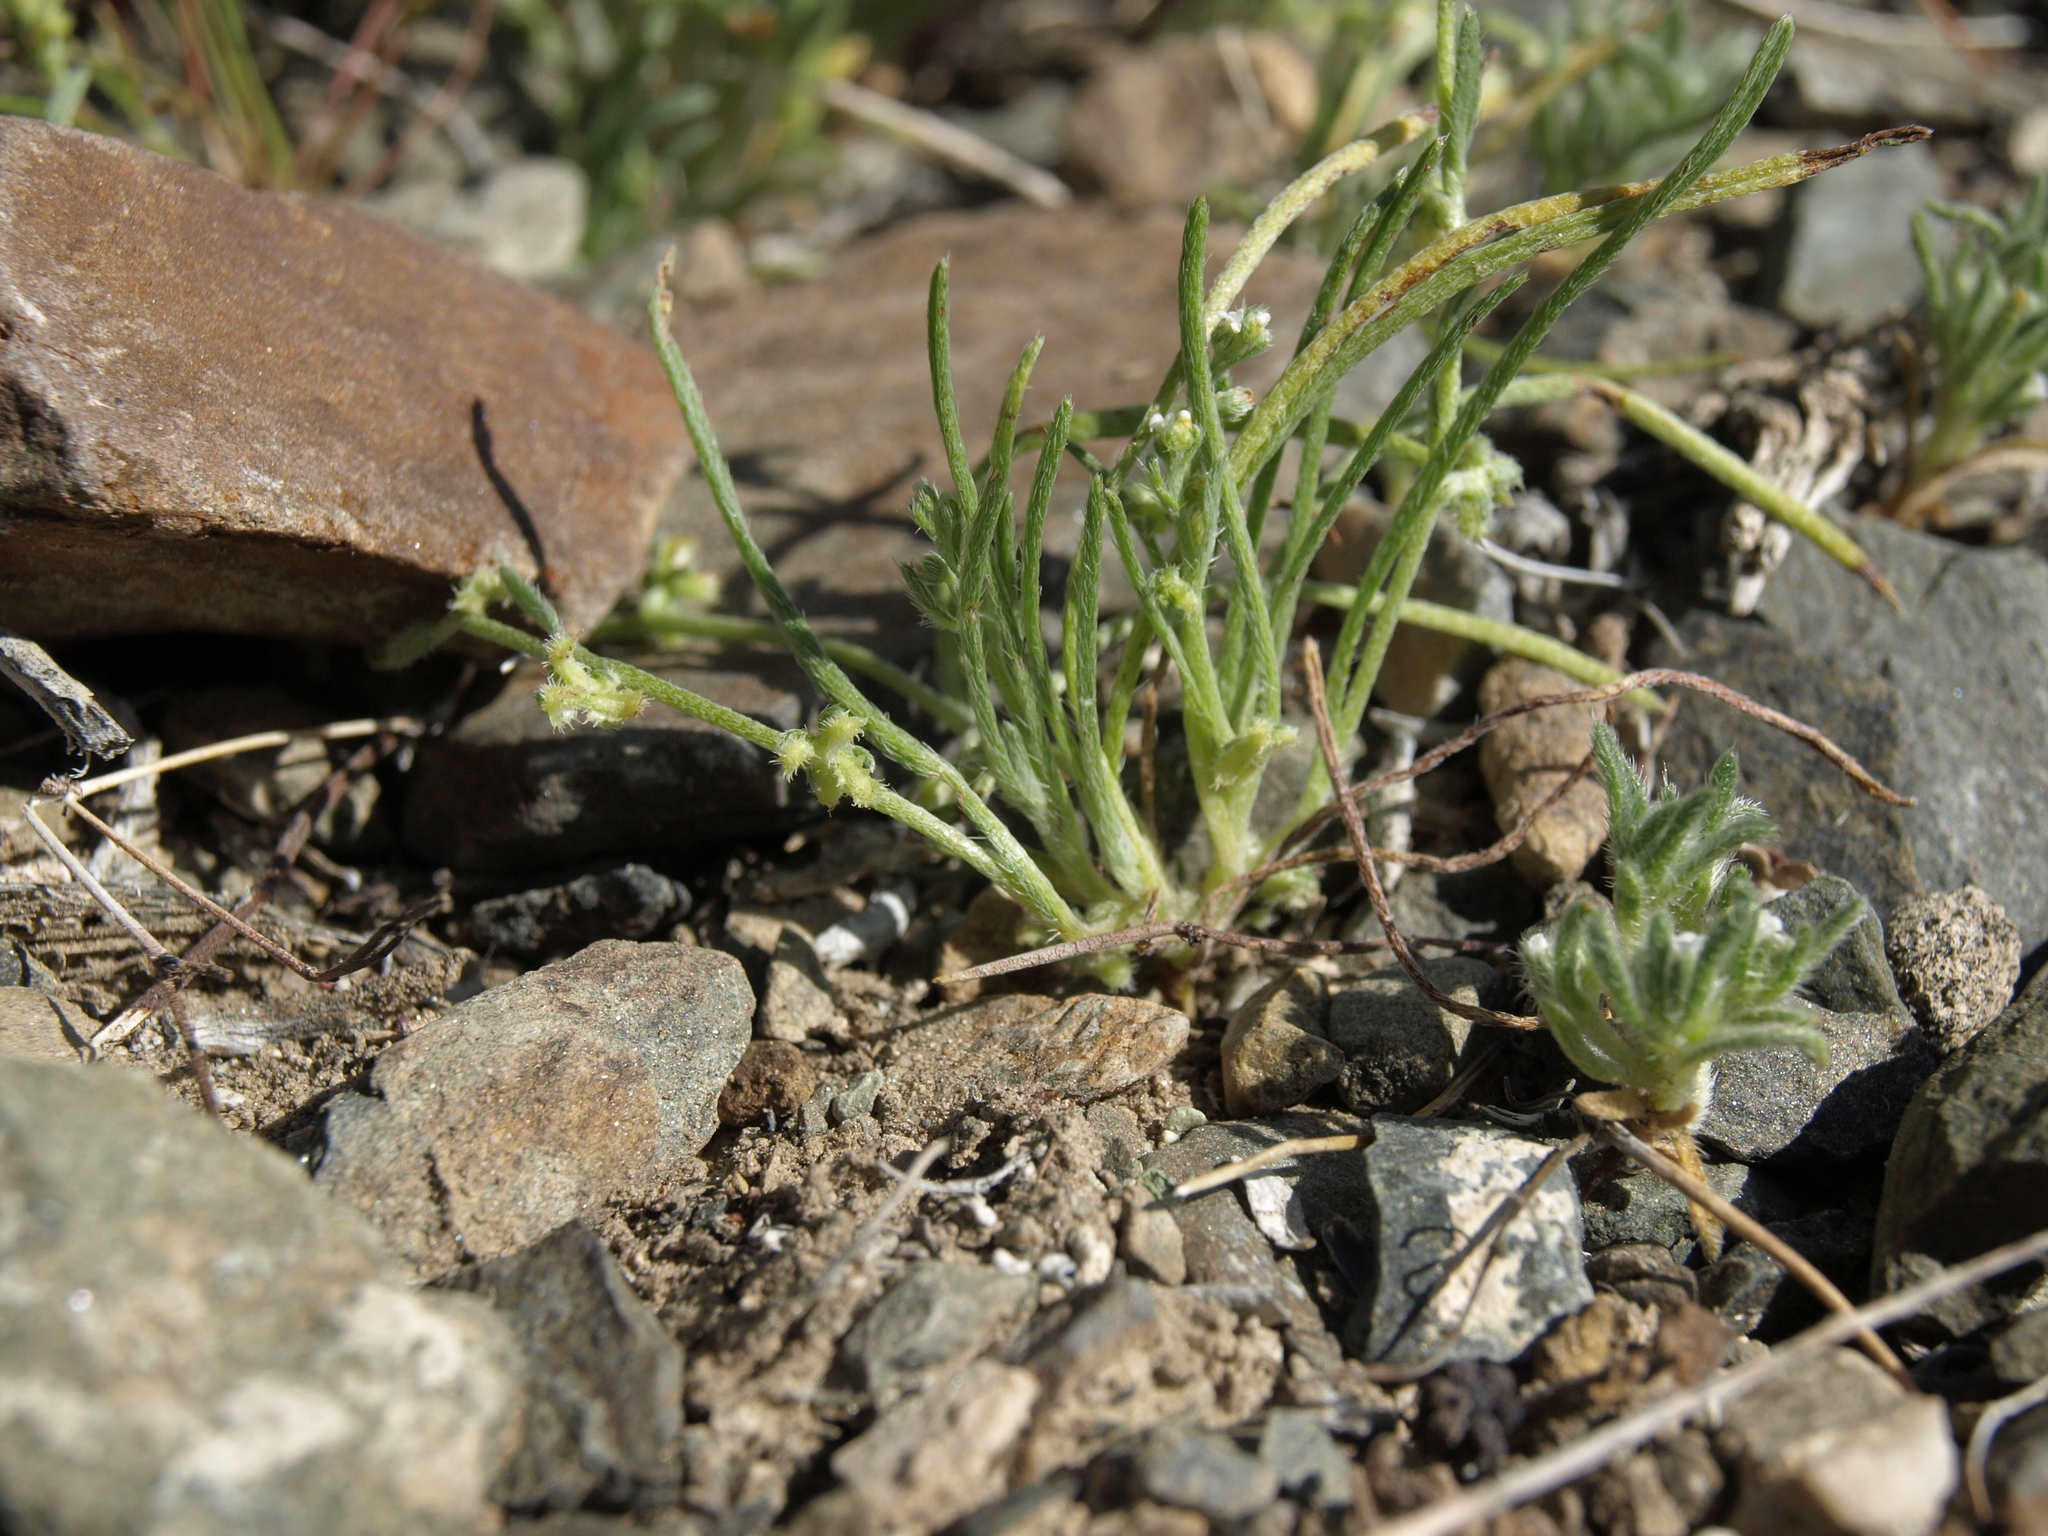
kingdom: Plantae
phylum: Tracheophyta
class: Magnoliopsida
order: Boraginales
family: Boraginaceae
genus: Pectocarya
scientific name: Pectocarya heterocarpa
